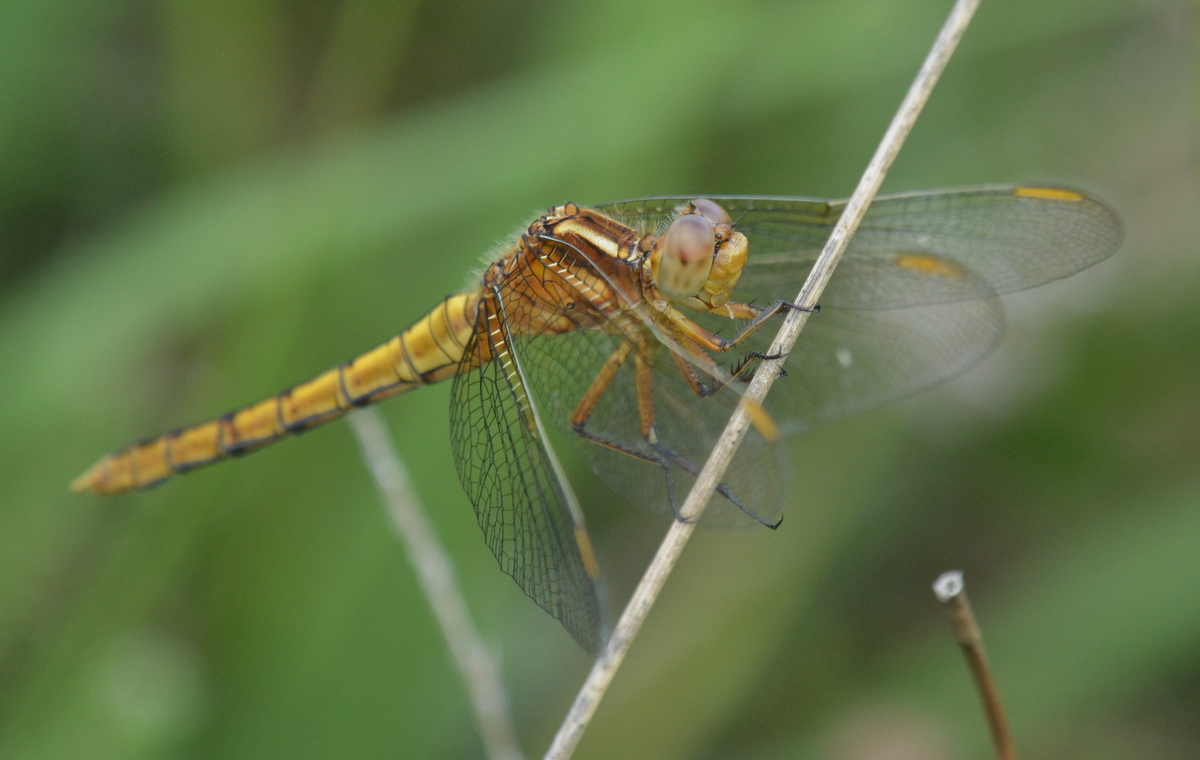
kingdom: Animalia
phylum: Arthropoda
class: Insecta
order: Odonata
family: Libellulidae
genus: Orthetrum
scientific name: Orthetrum coerulescens
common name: Keeled skimmer
